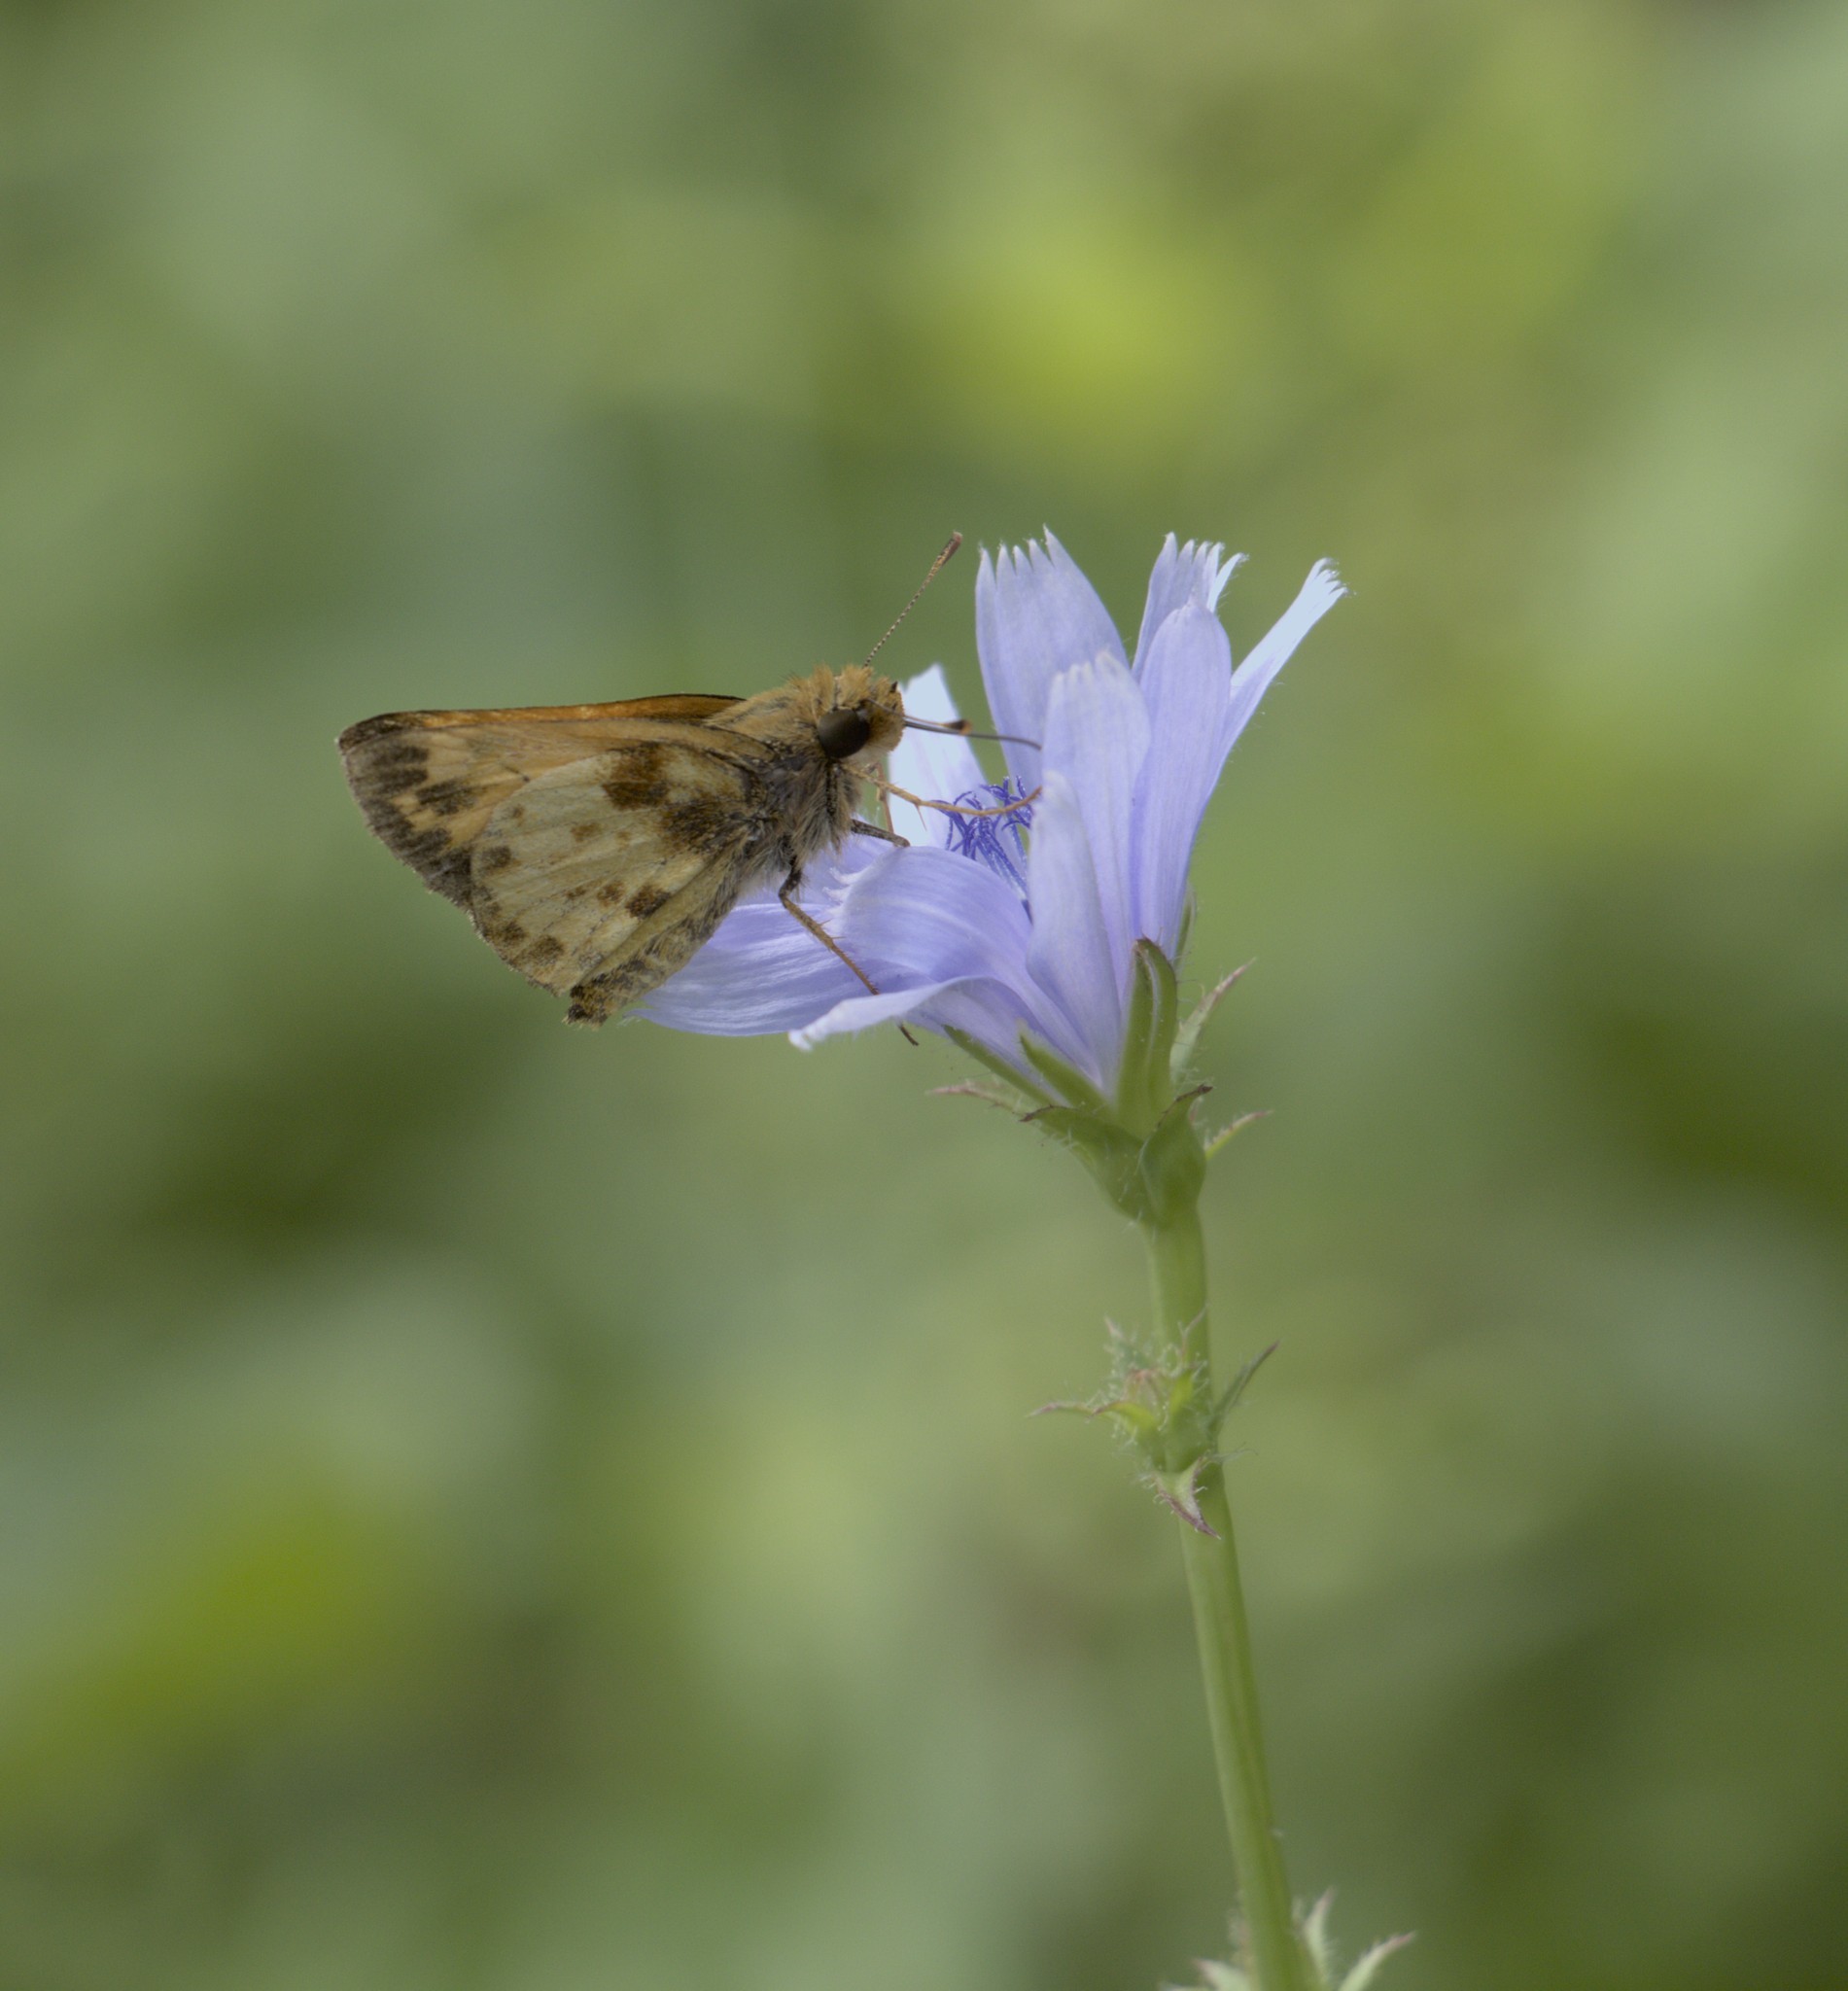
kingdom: Animalia
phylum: Arthropoda
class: Insecta
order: Lepidoptera
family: Hesperiidae
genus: Lon
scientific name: Lon zabulon
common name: Zabulon skipper
